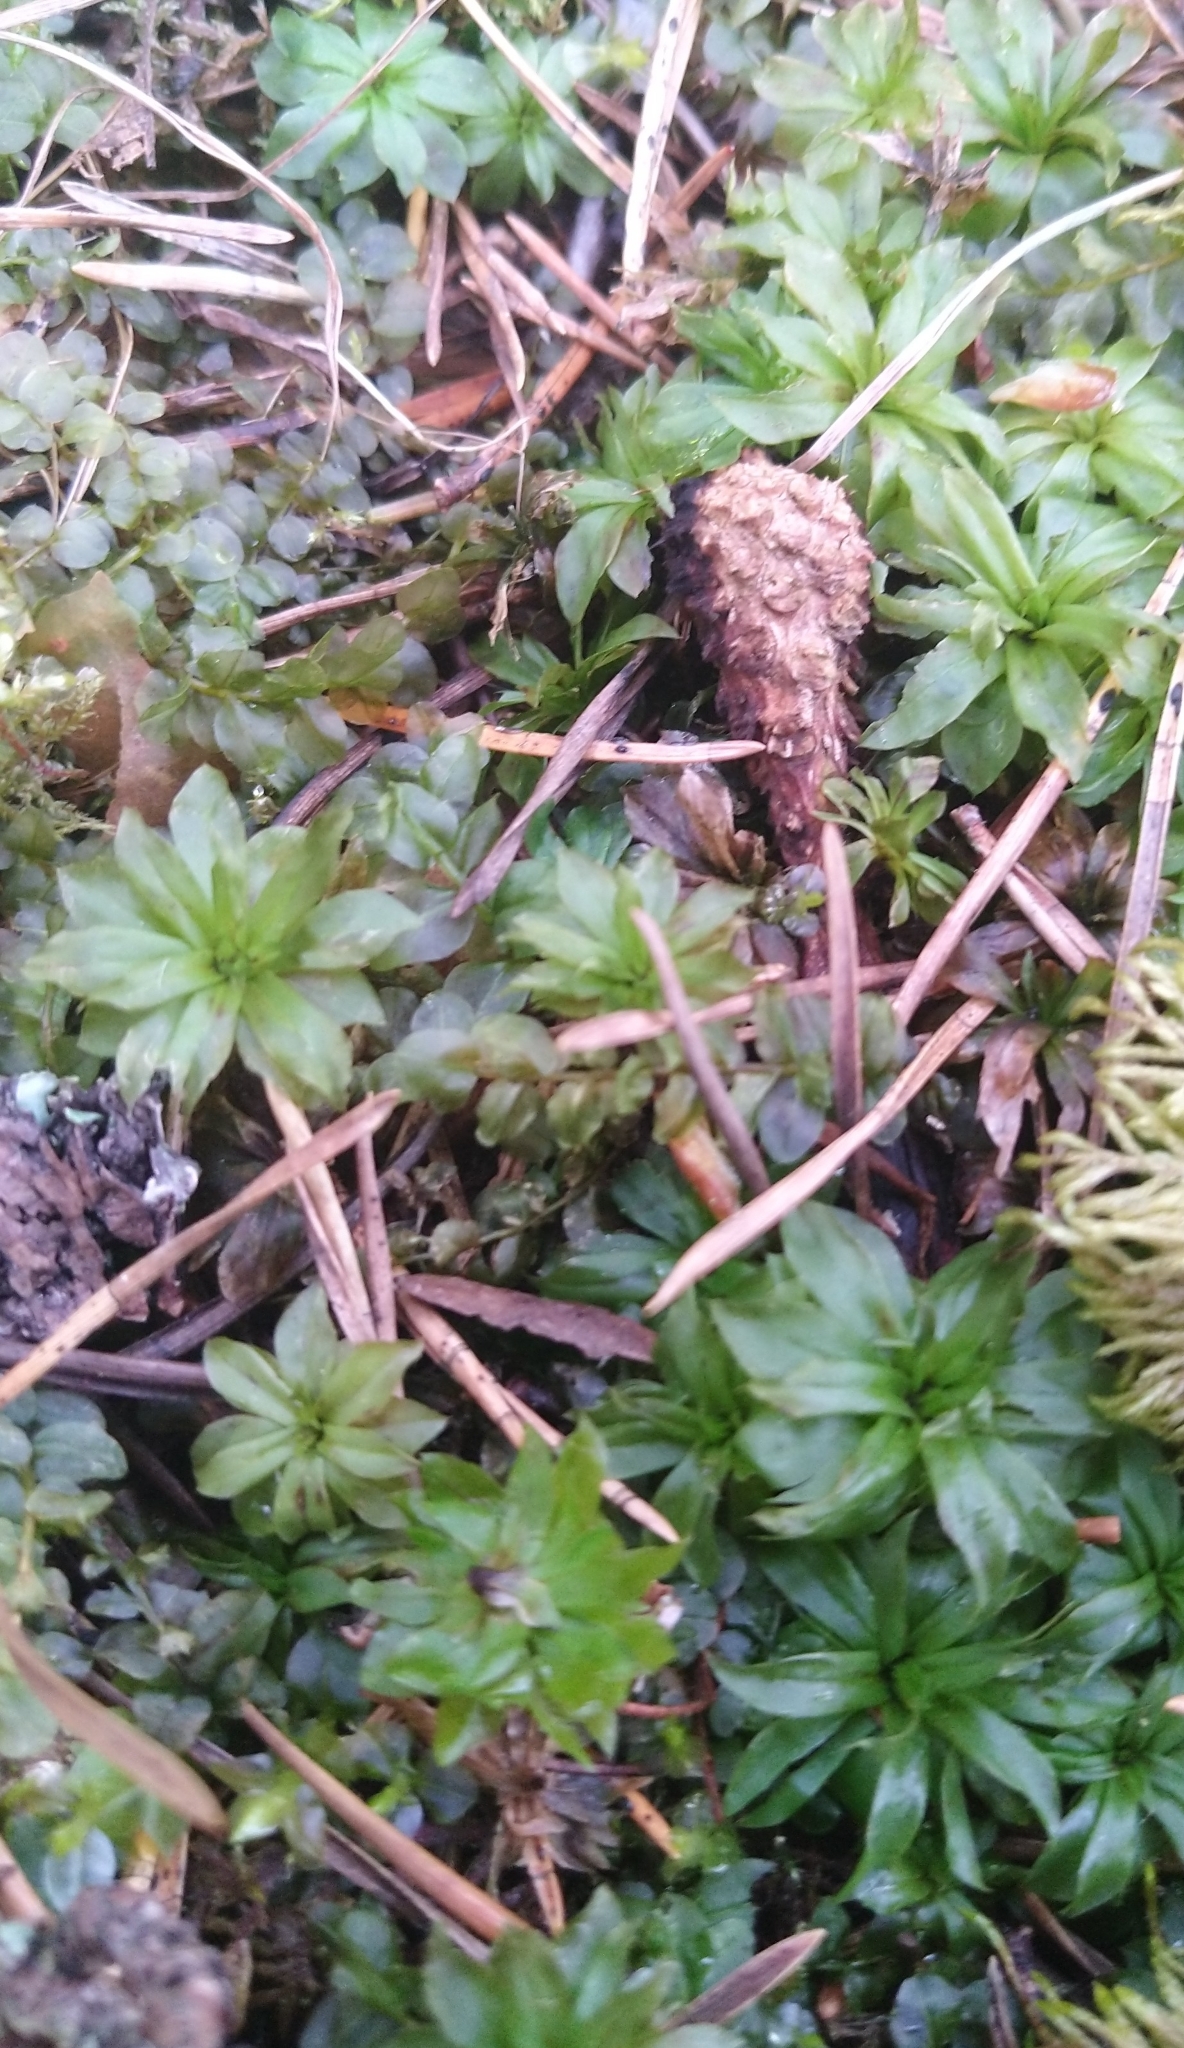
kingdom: Plantae
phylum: Bryophyta
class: Bryopsida
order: Bryales
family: Bryaceae
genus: Rhodobryum
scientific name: Rhodobryum roseum
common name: Rose-moss
